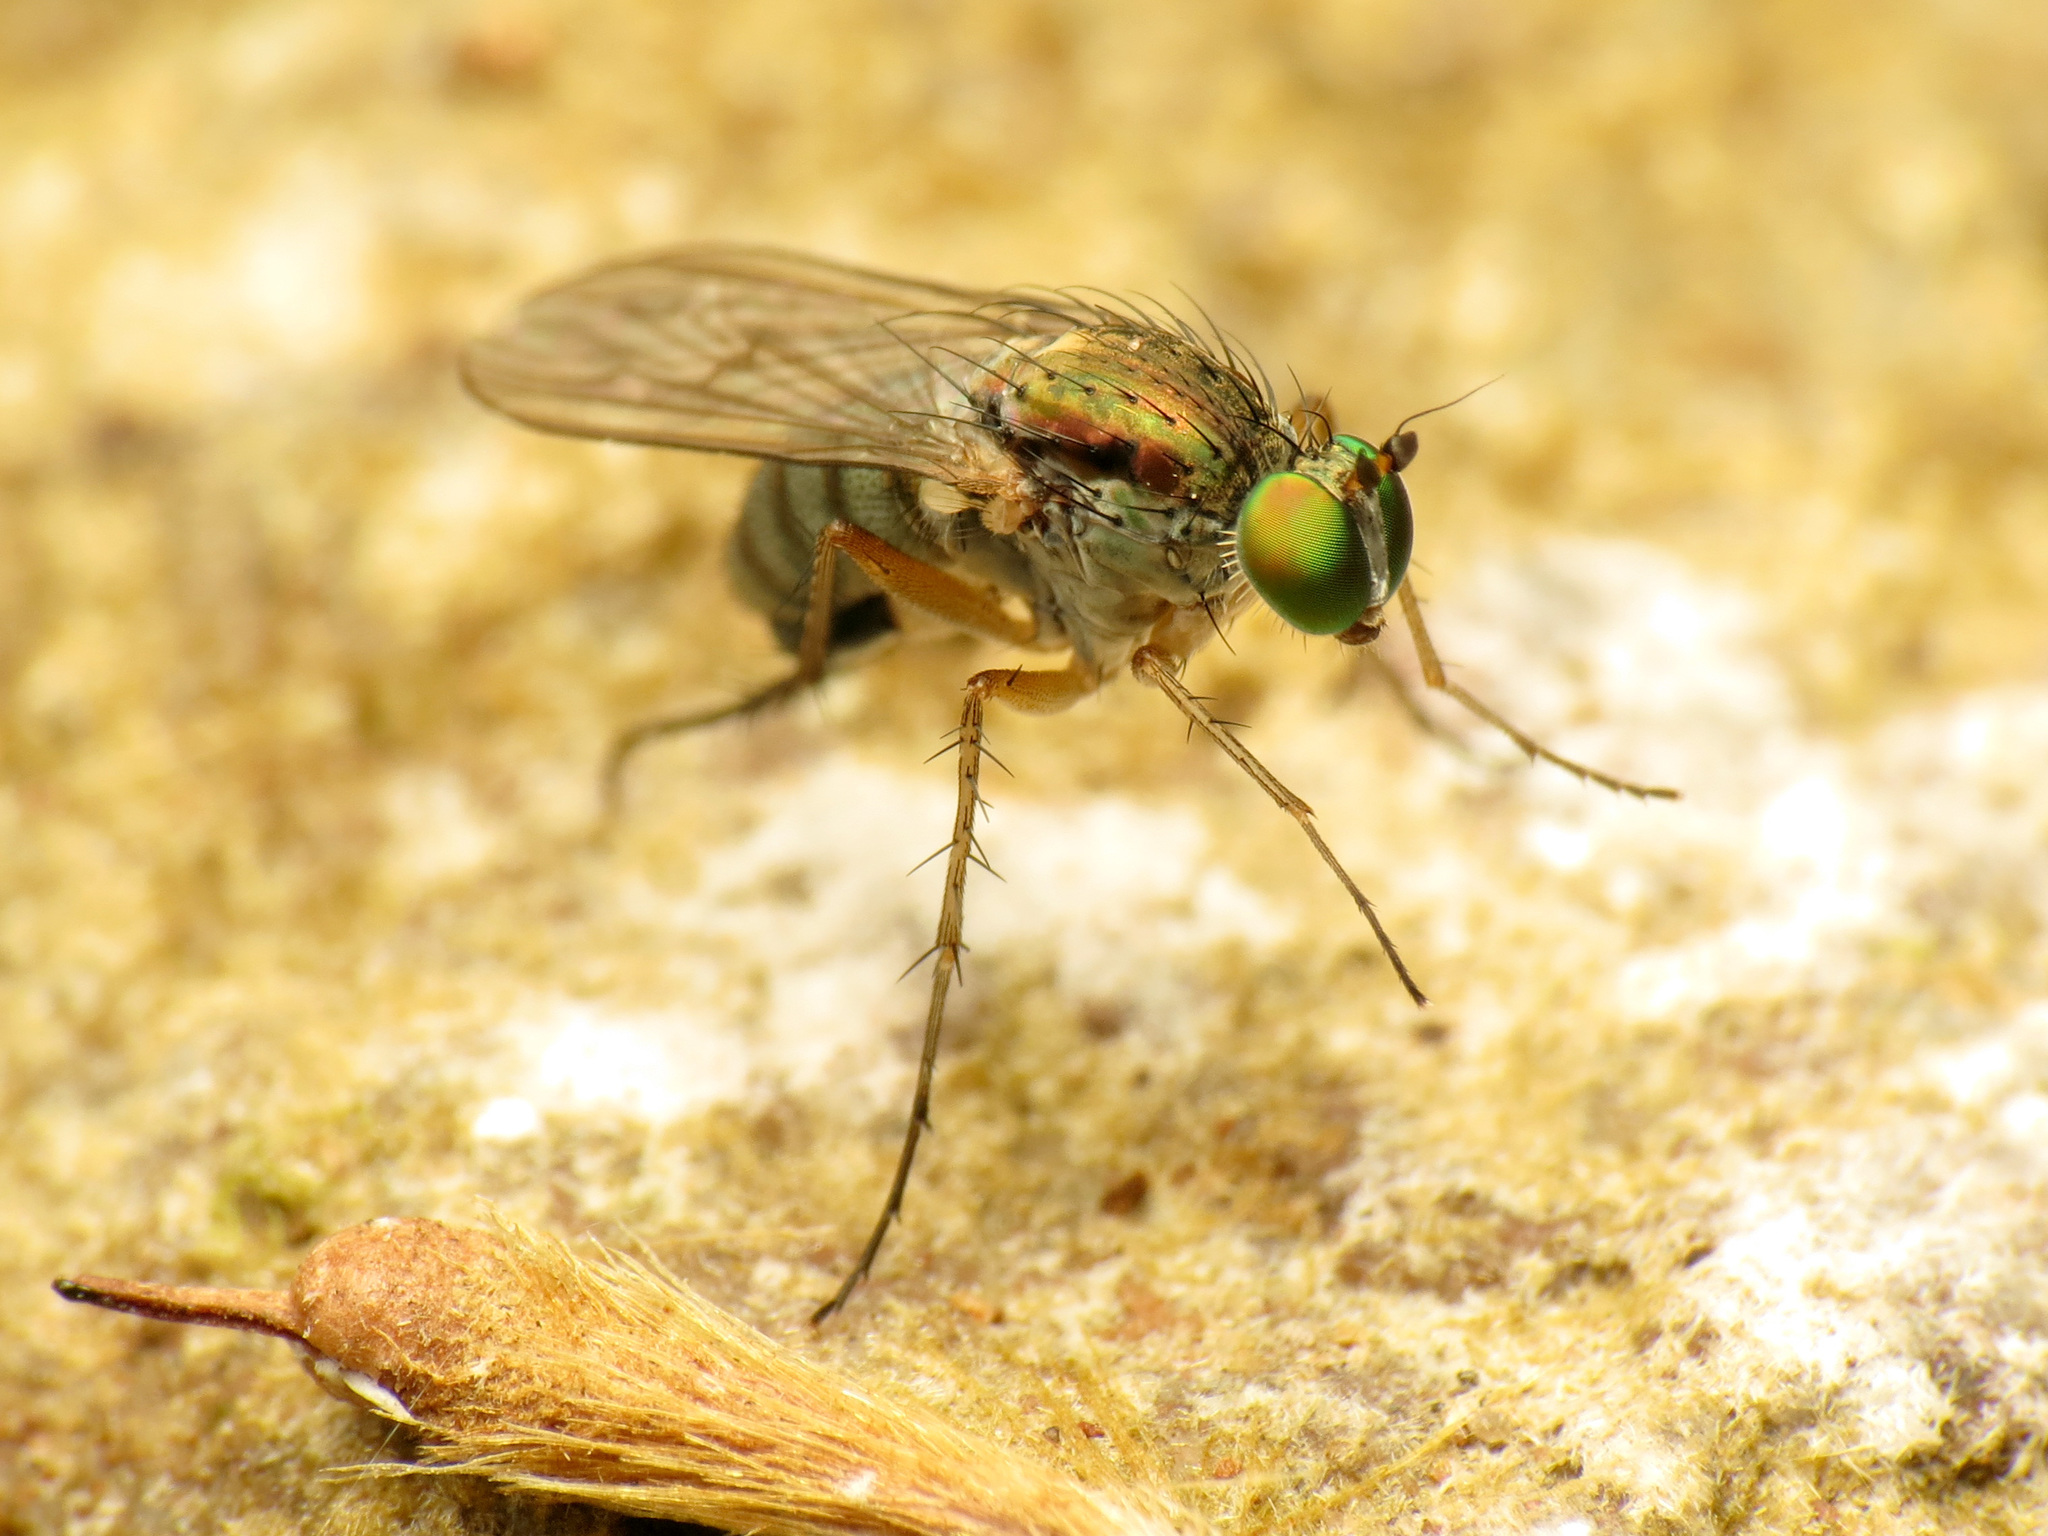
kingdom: Animalia
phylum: Arthropoda
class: Insecta
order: Diptera
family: Dolichopodidae
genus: Dolichopus
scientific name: Dolichopus dorsalis
